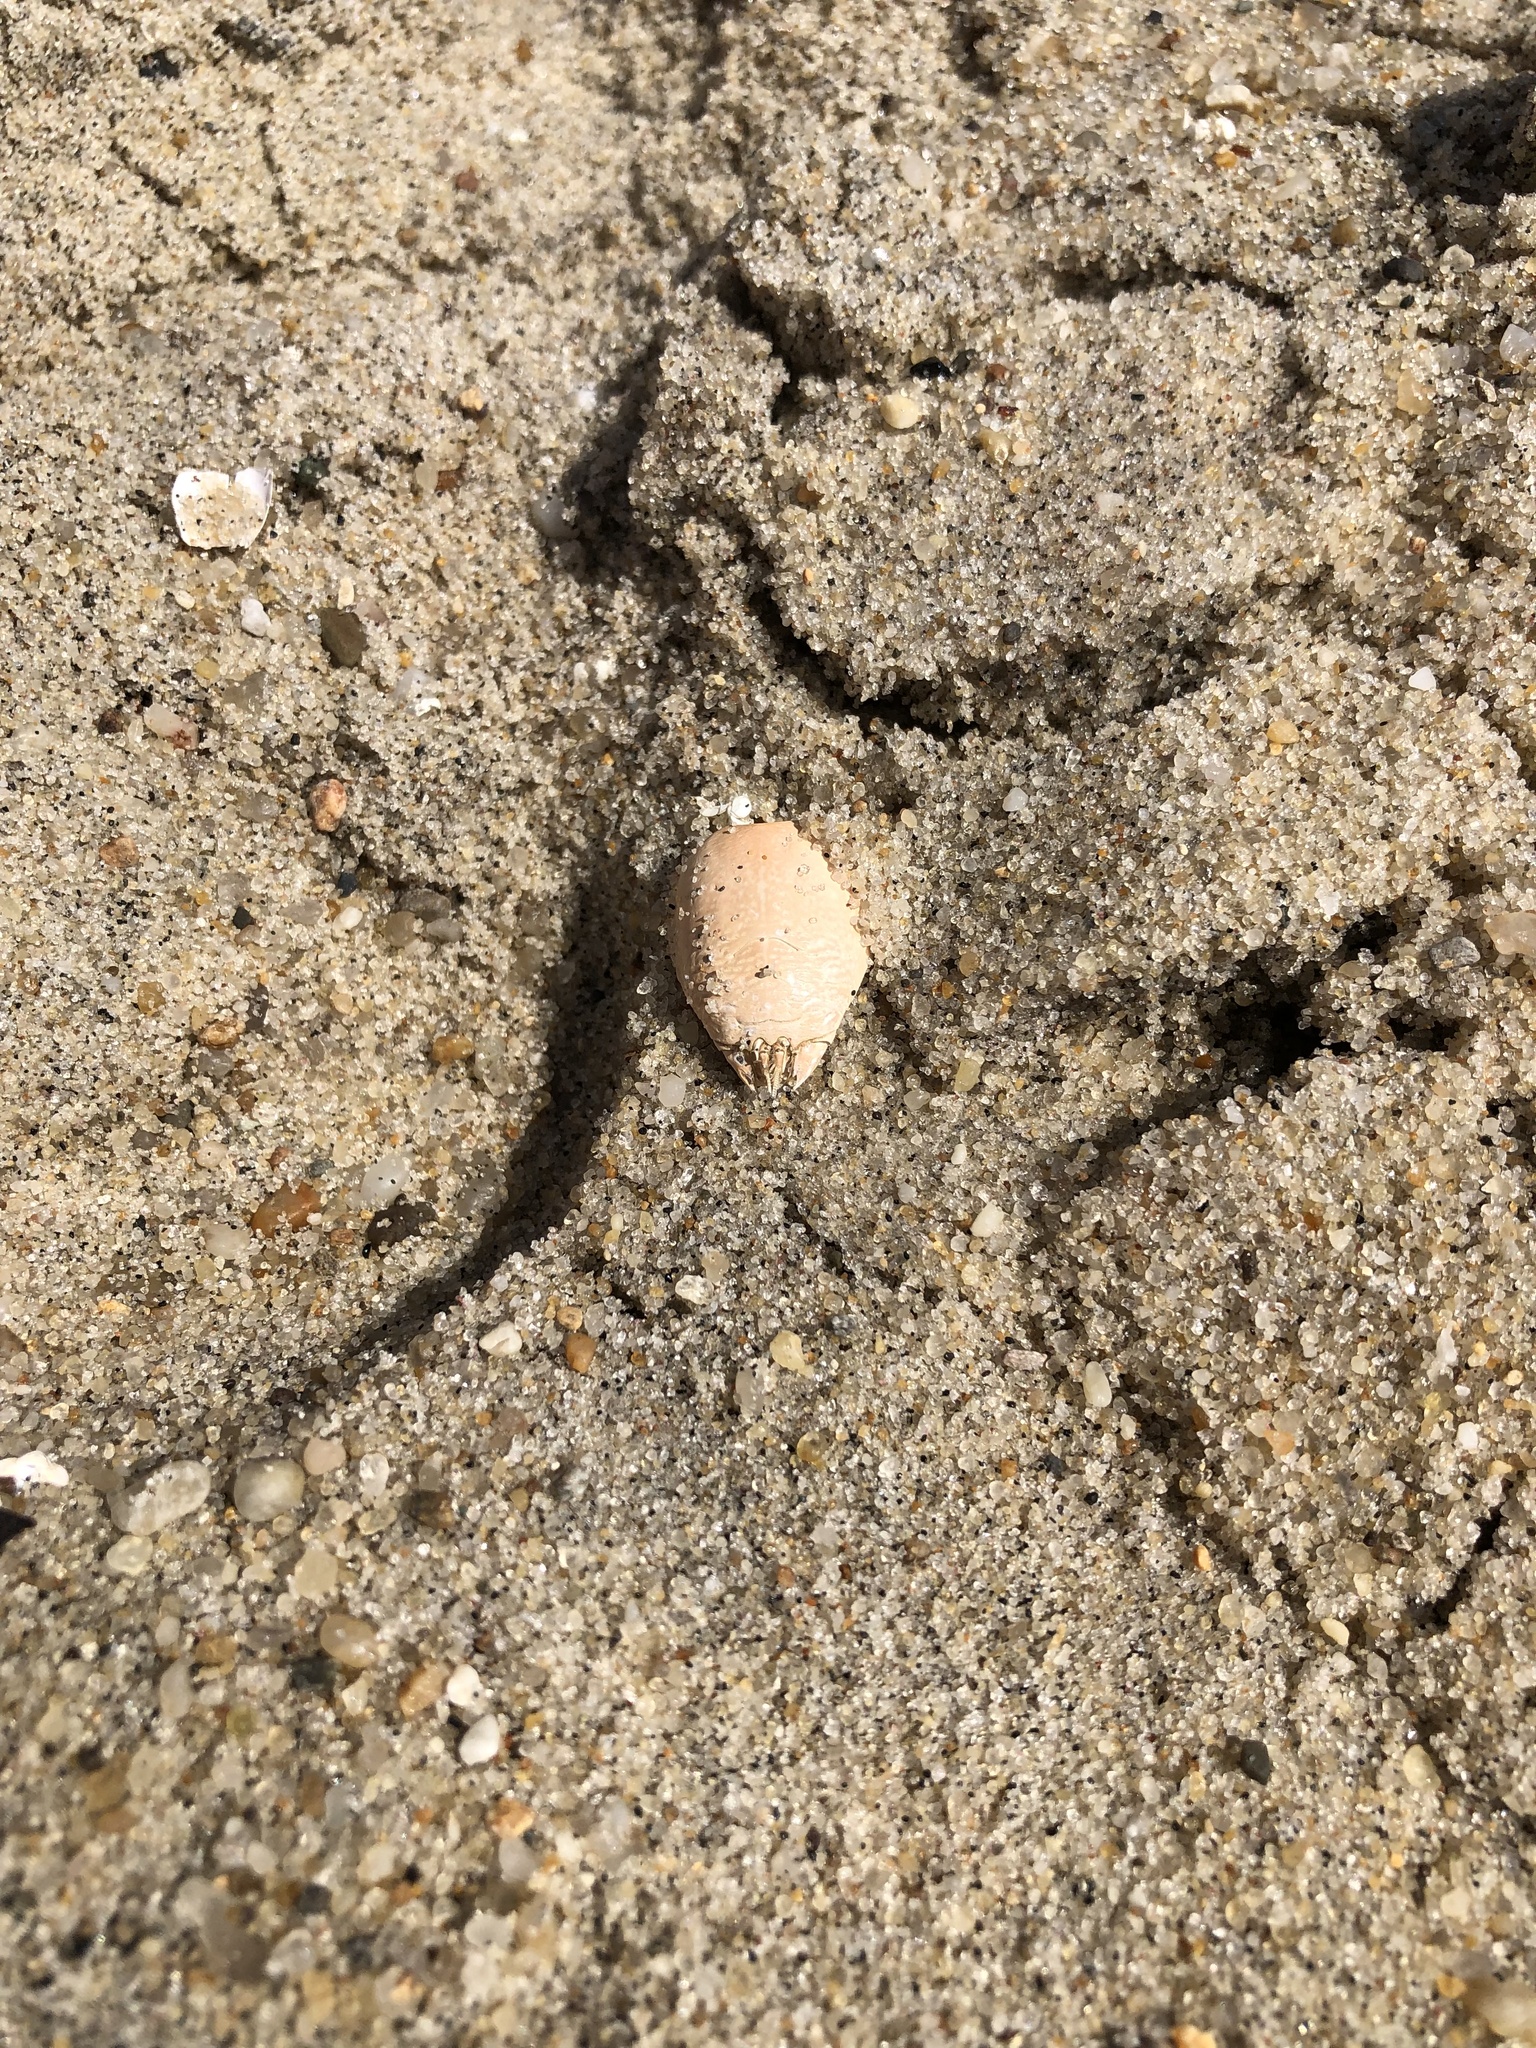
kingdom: Animalia
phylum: Arthropoda
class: Malacostraca
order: Decapoda
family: Hippidae
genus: Emerita
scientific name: Emerita talpoida
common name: Atlantic sand crab
